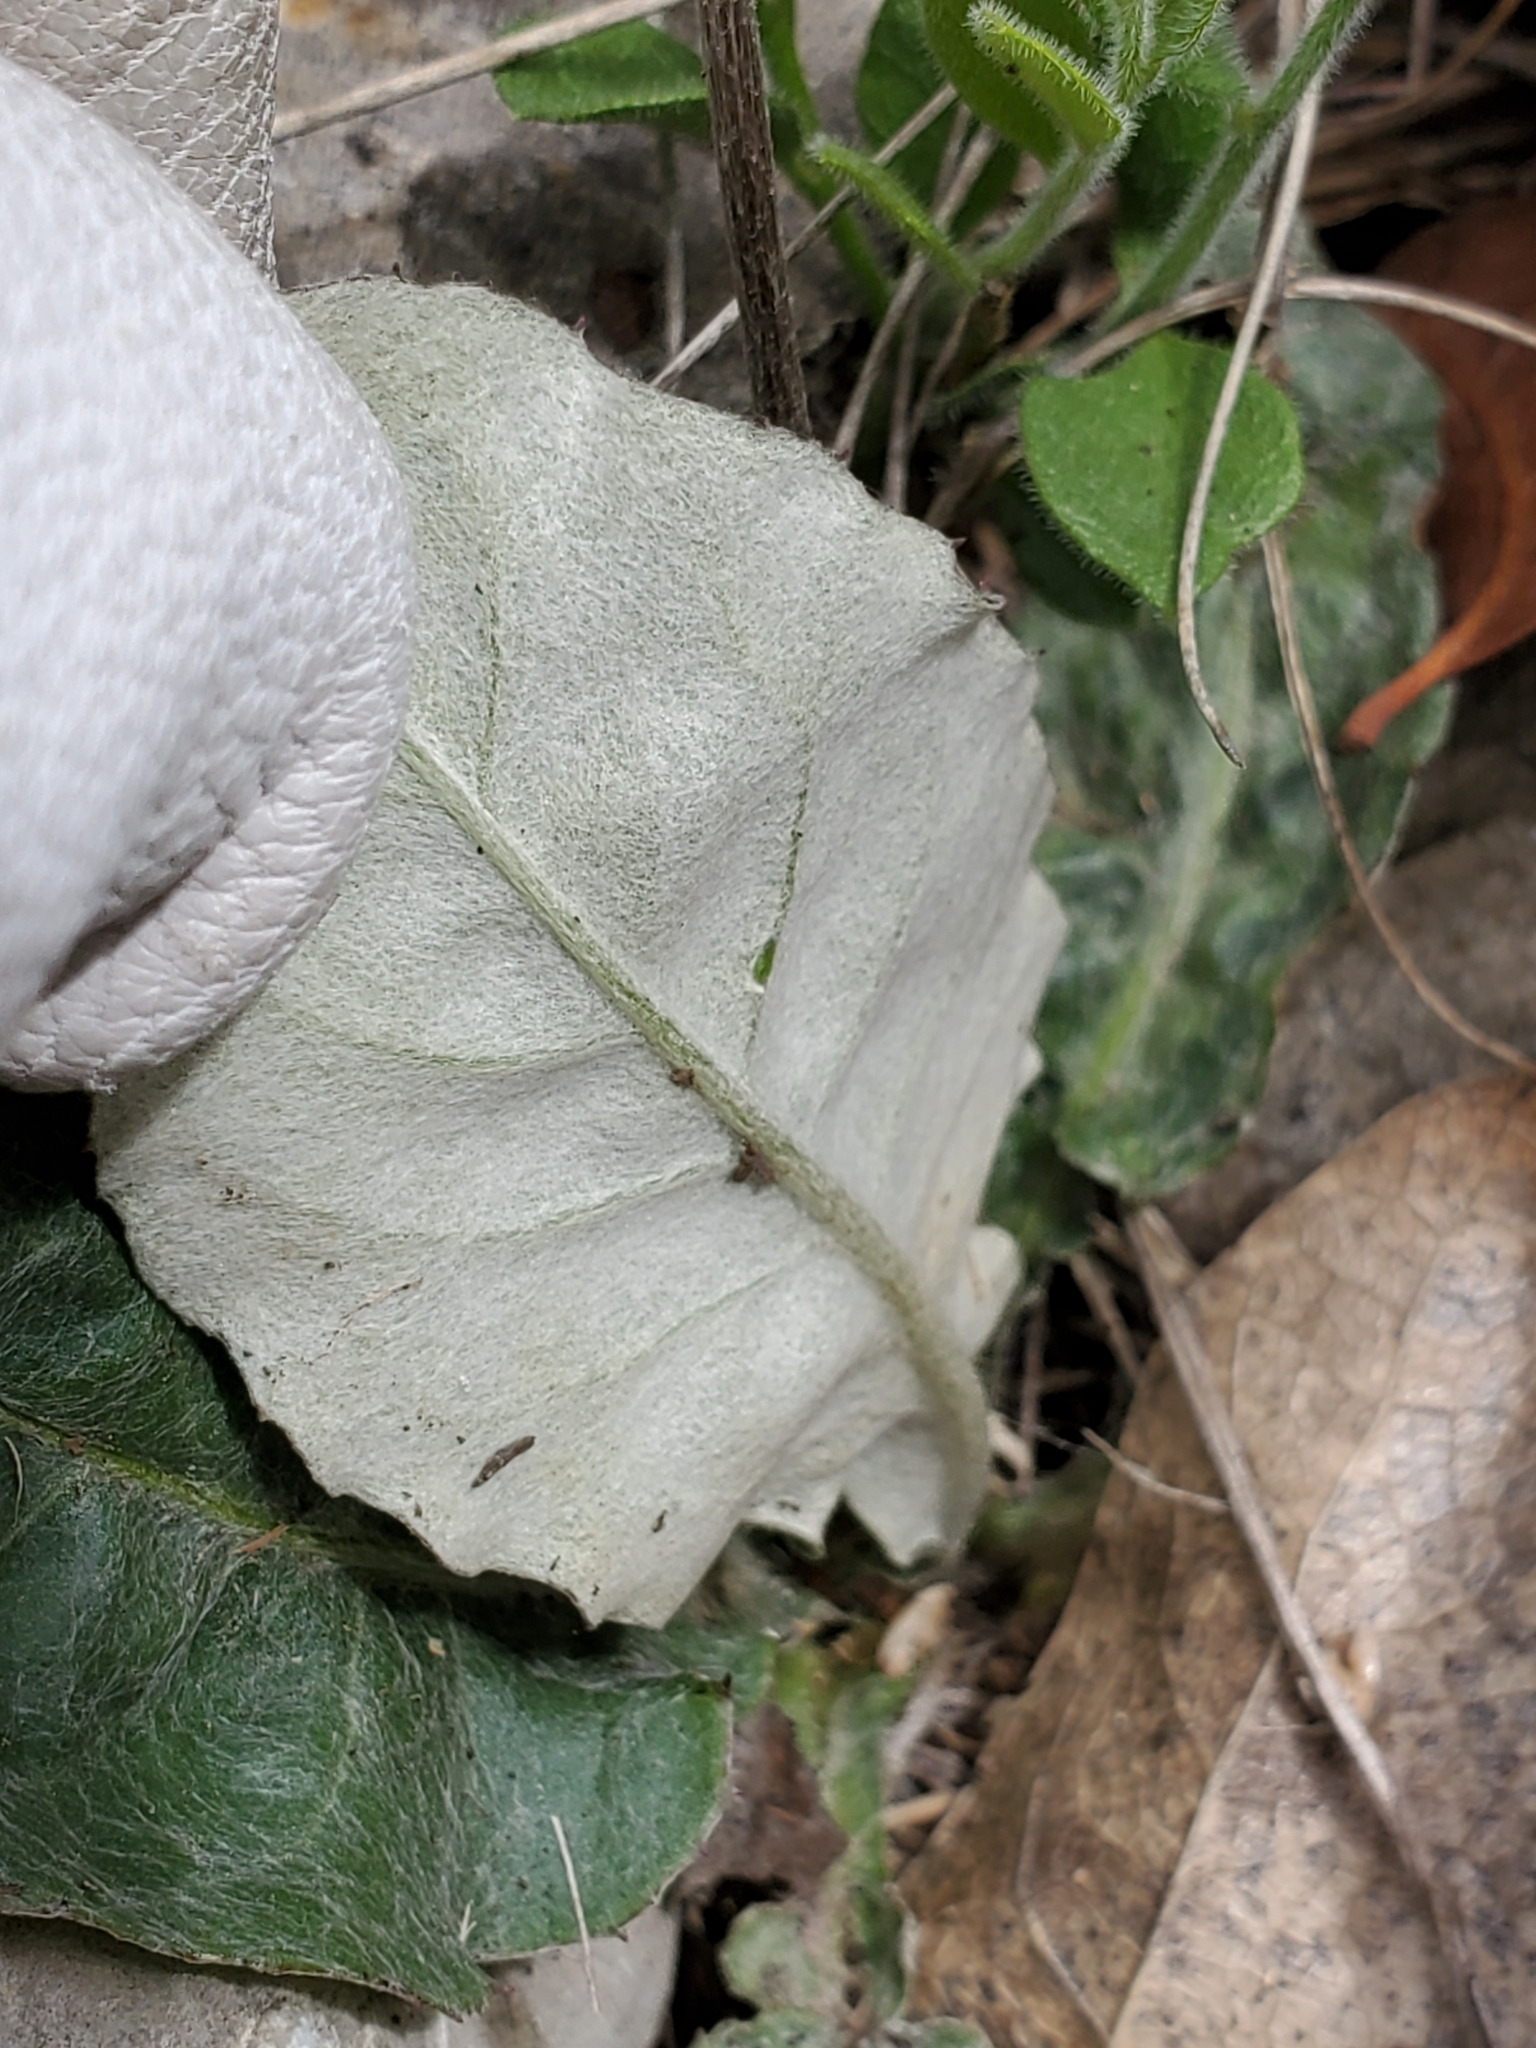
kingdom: Plantae
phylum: Tracheophyta
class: Magnoliopsida
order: Asterales
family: Asteraceae
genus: Chaptalia
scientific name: Chaptalia texana
